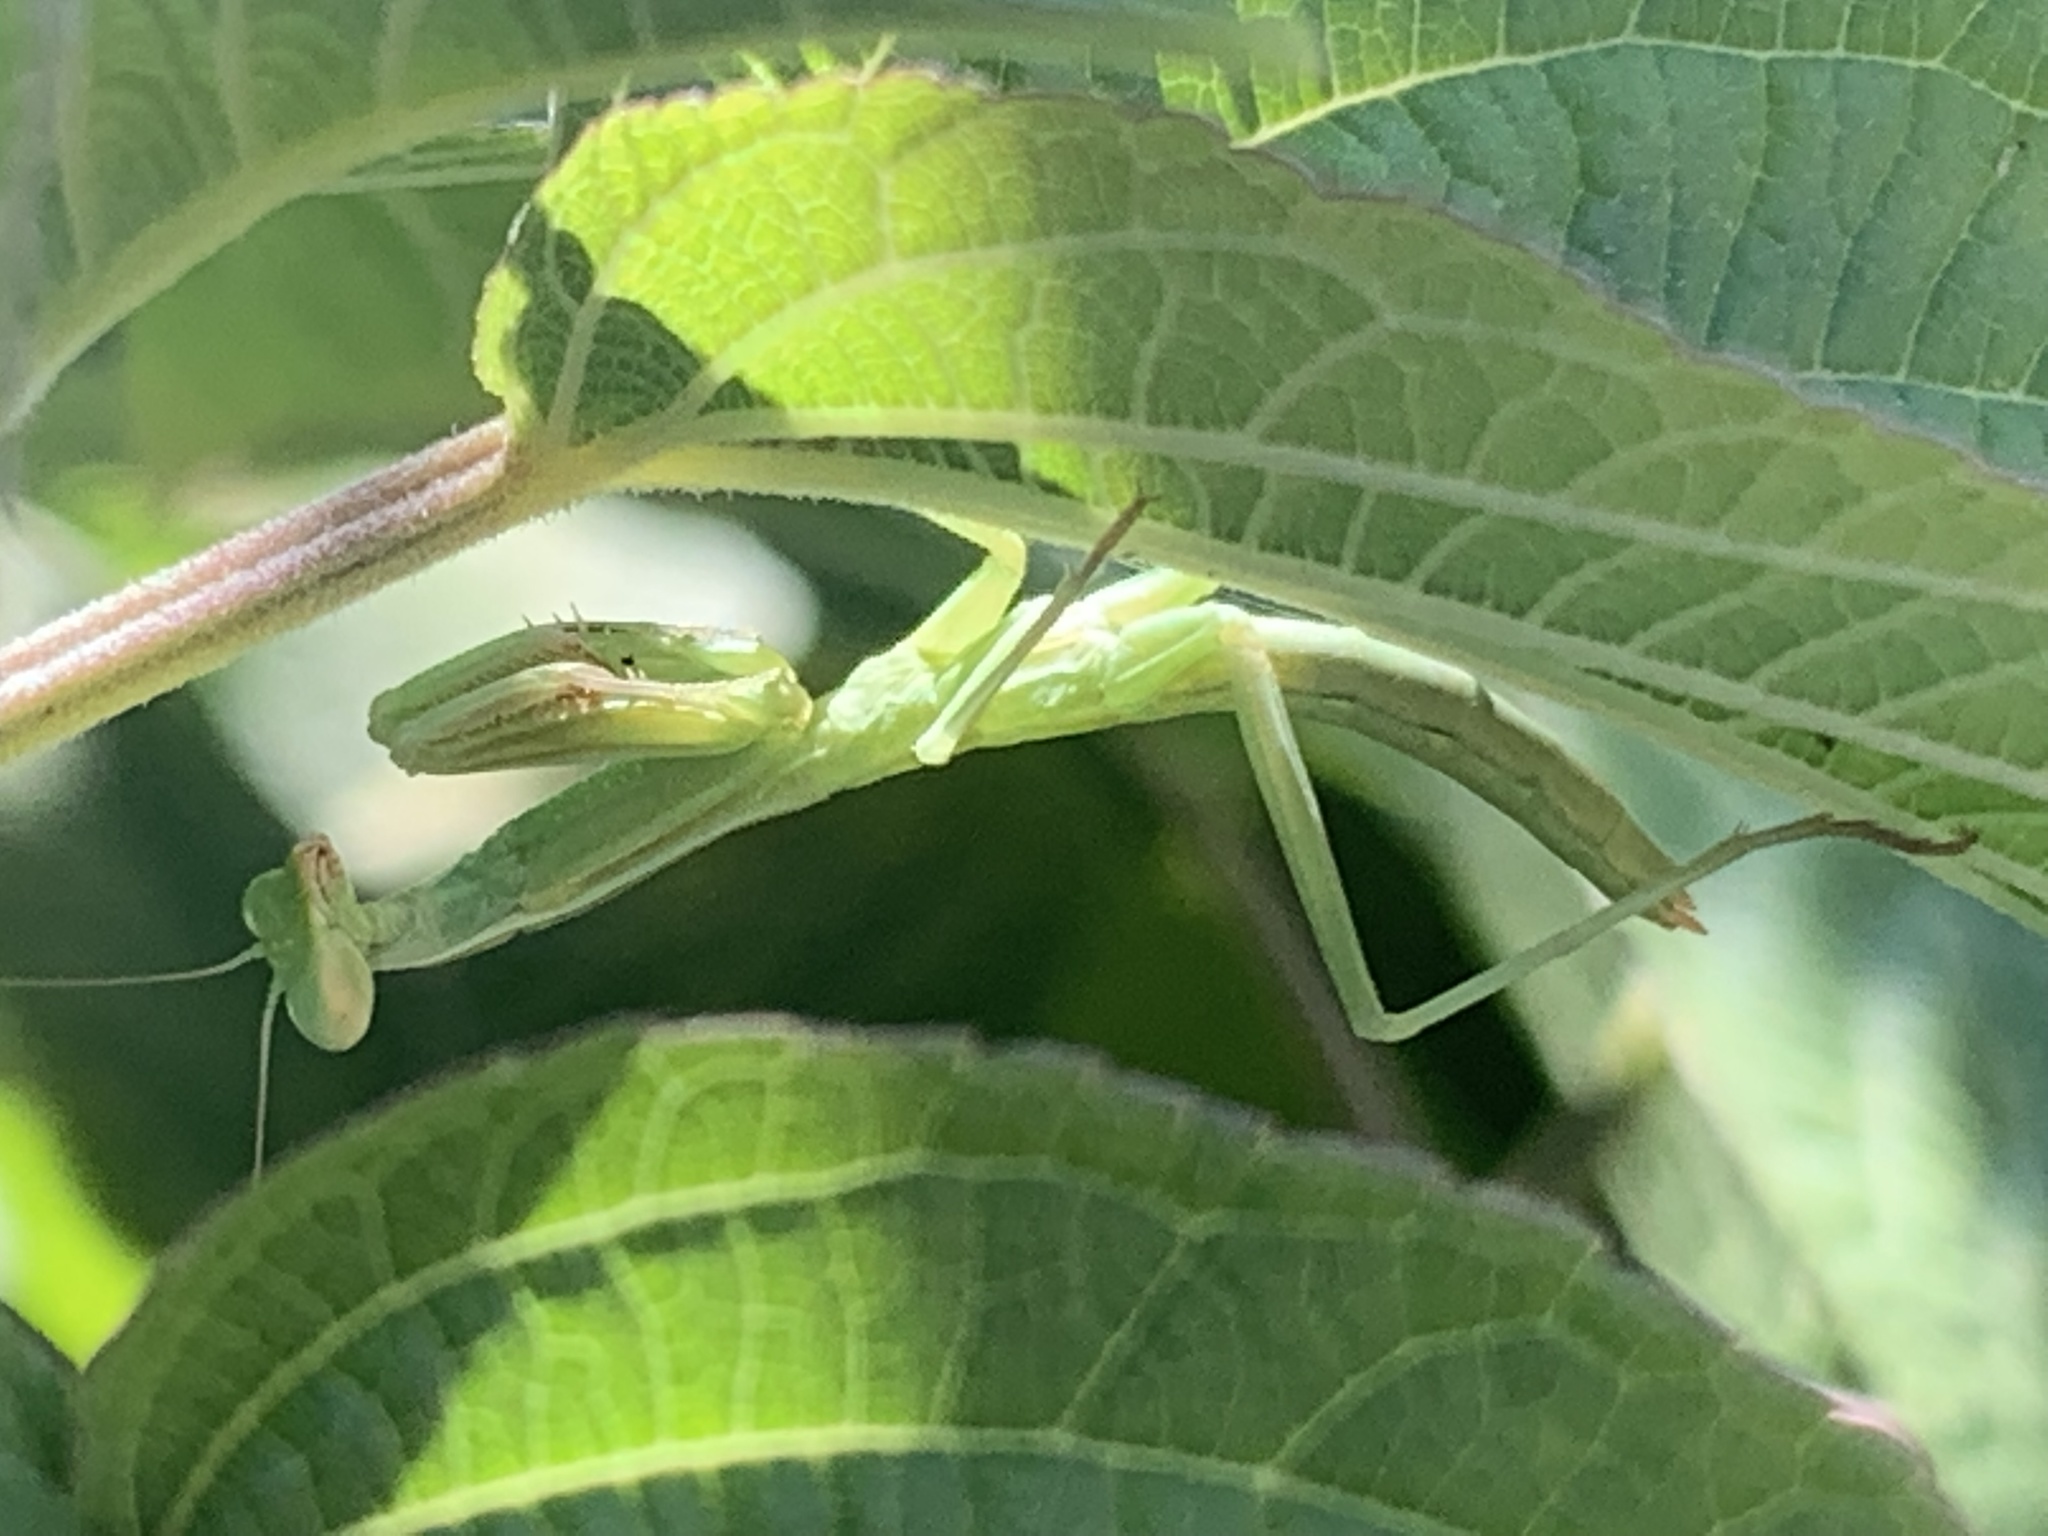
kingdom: Animalia
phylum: Arthropoda
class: Insecta
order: Mantodea
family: Eremiaphilidae
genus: Iris
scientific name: Iris oratoria
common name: Mediterranean mantis
